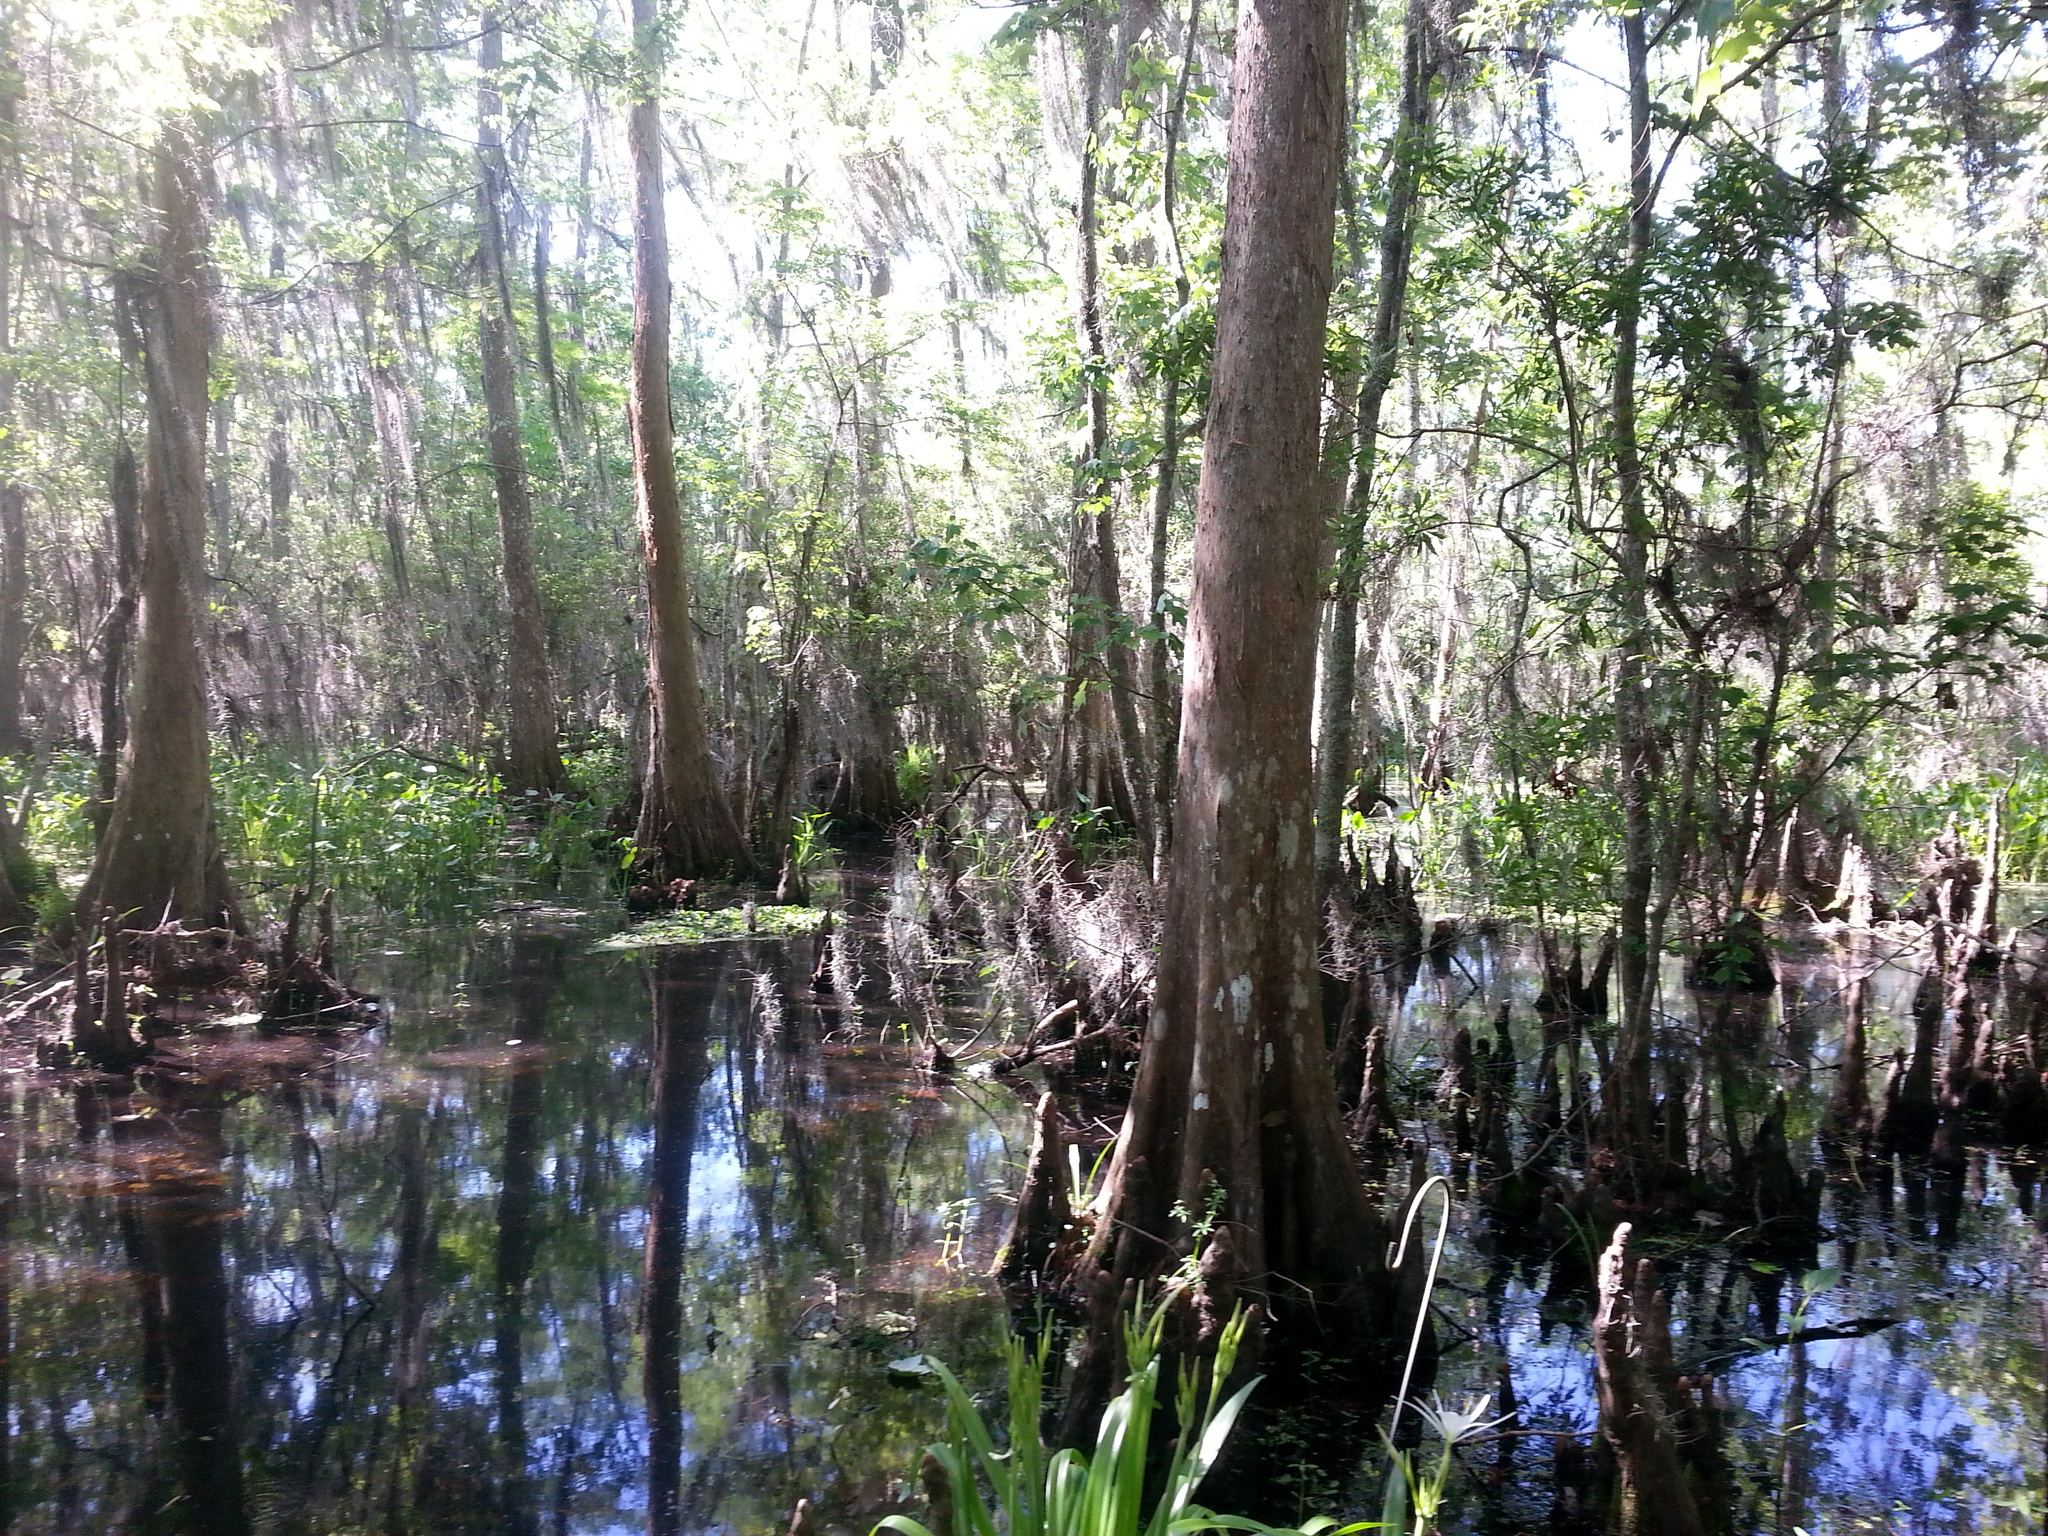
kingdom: Plantae
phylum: Tracheophyta
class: Pinopsida
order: Pinales
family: Cupressaceae
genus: Taxodium
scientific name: Taxodium distichum
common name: Bald cypress
